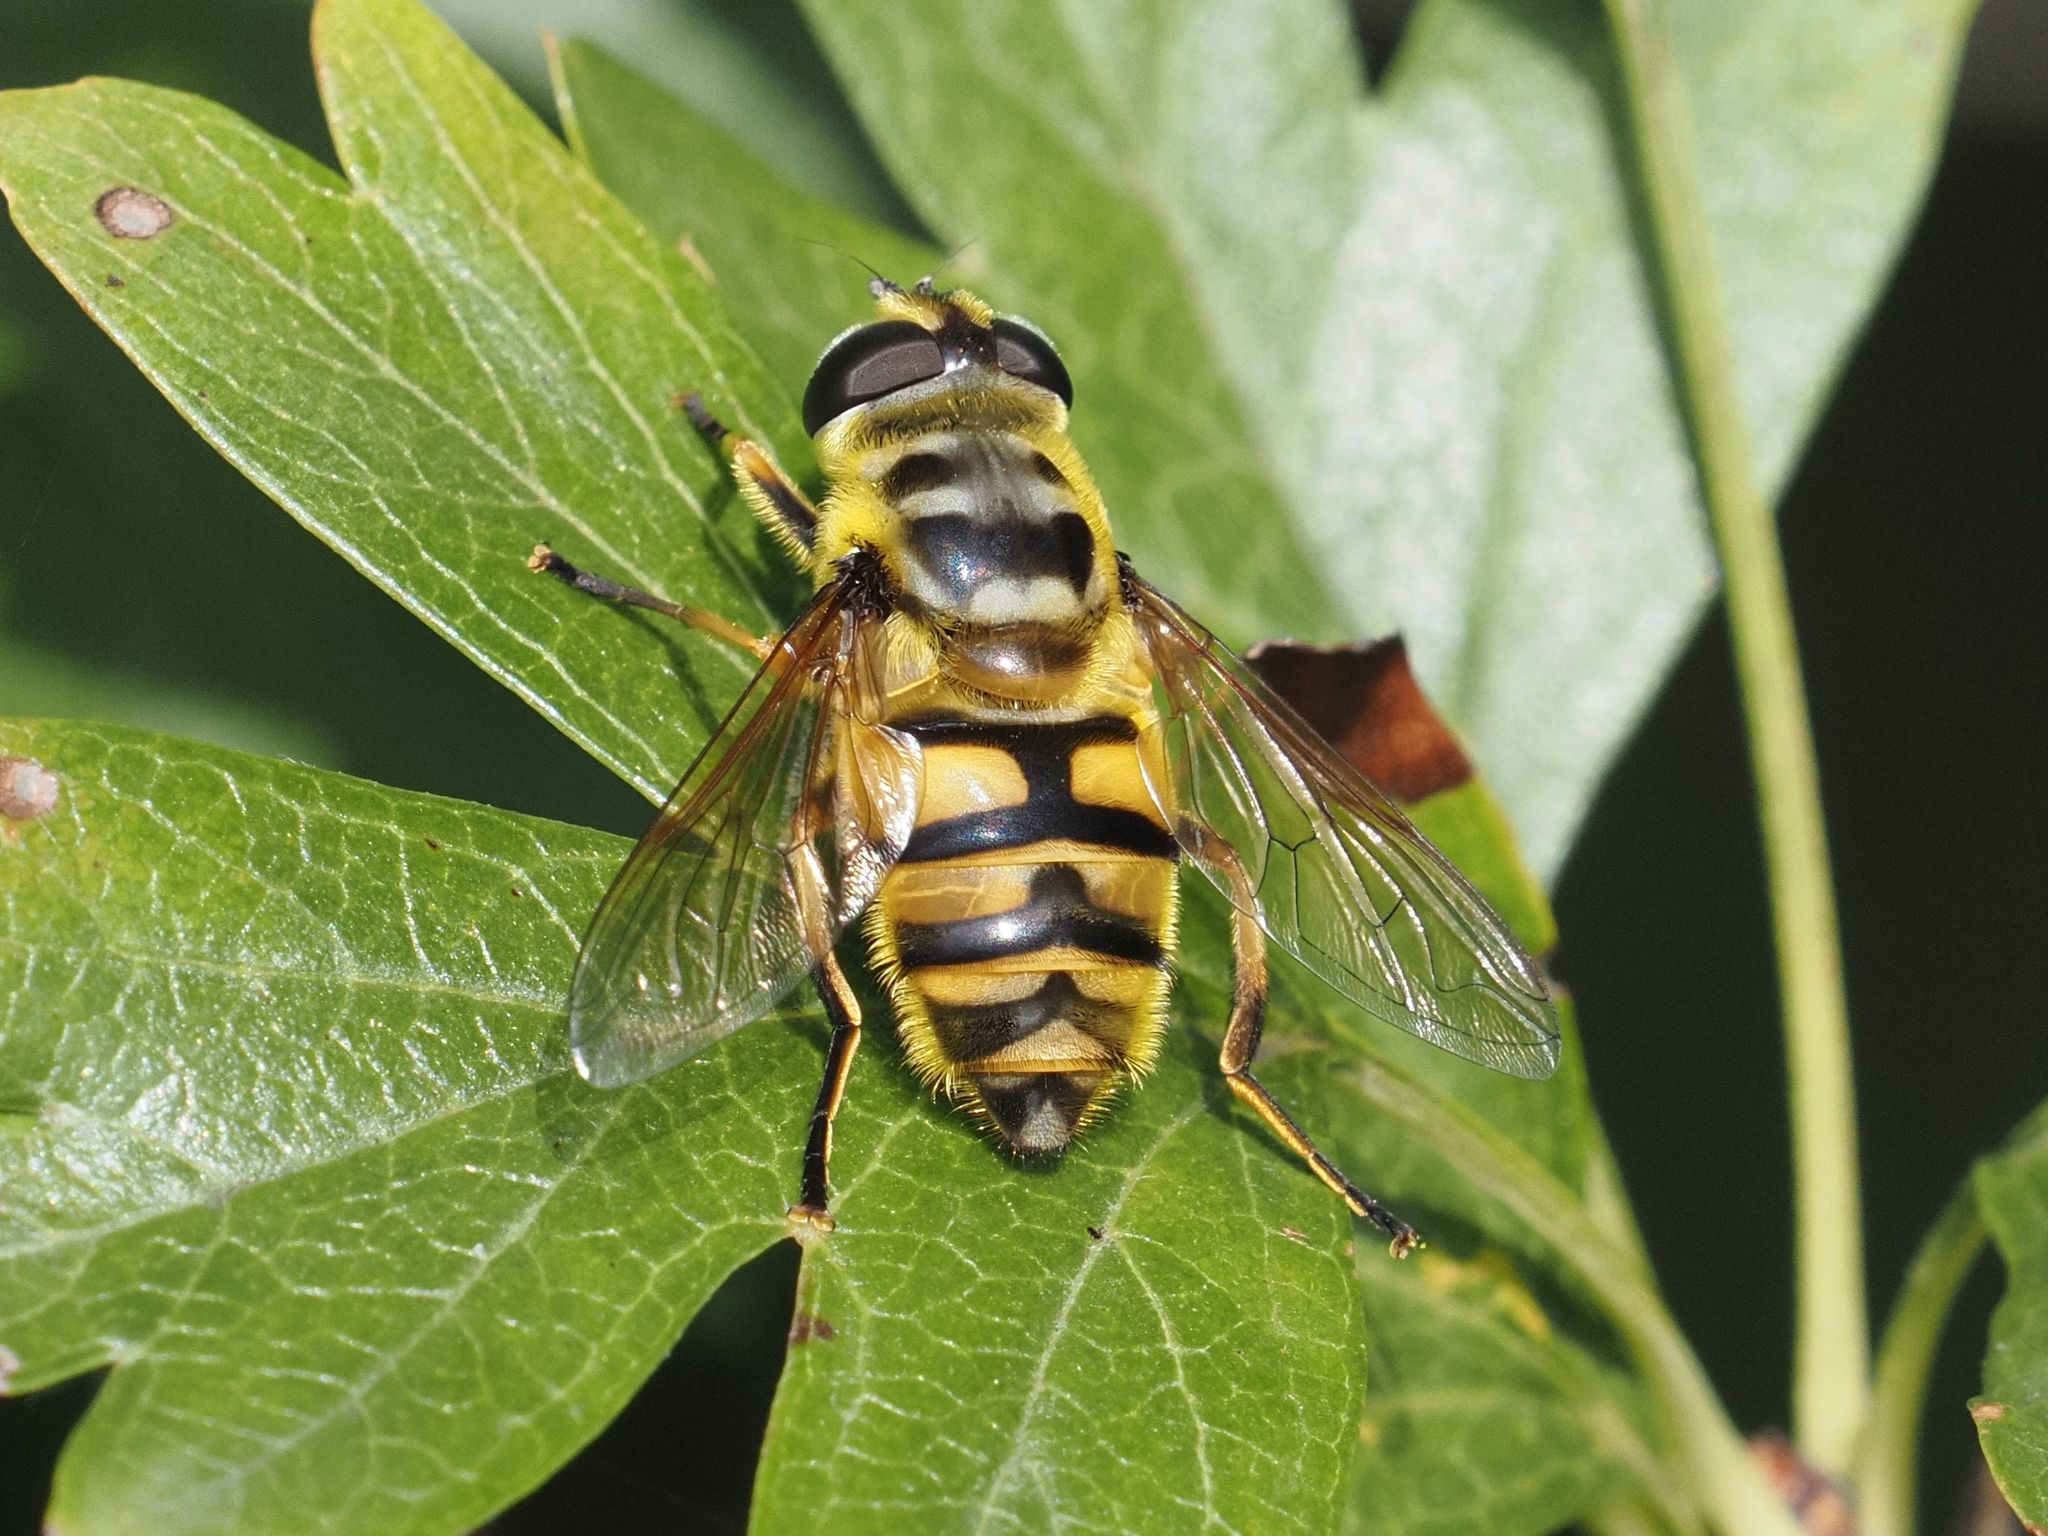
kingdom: Animalia
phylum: Arthropoda
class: Insecta
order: Diptera
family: Syrphidae
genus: Myathropa
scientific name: Myathropa florea
